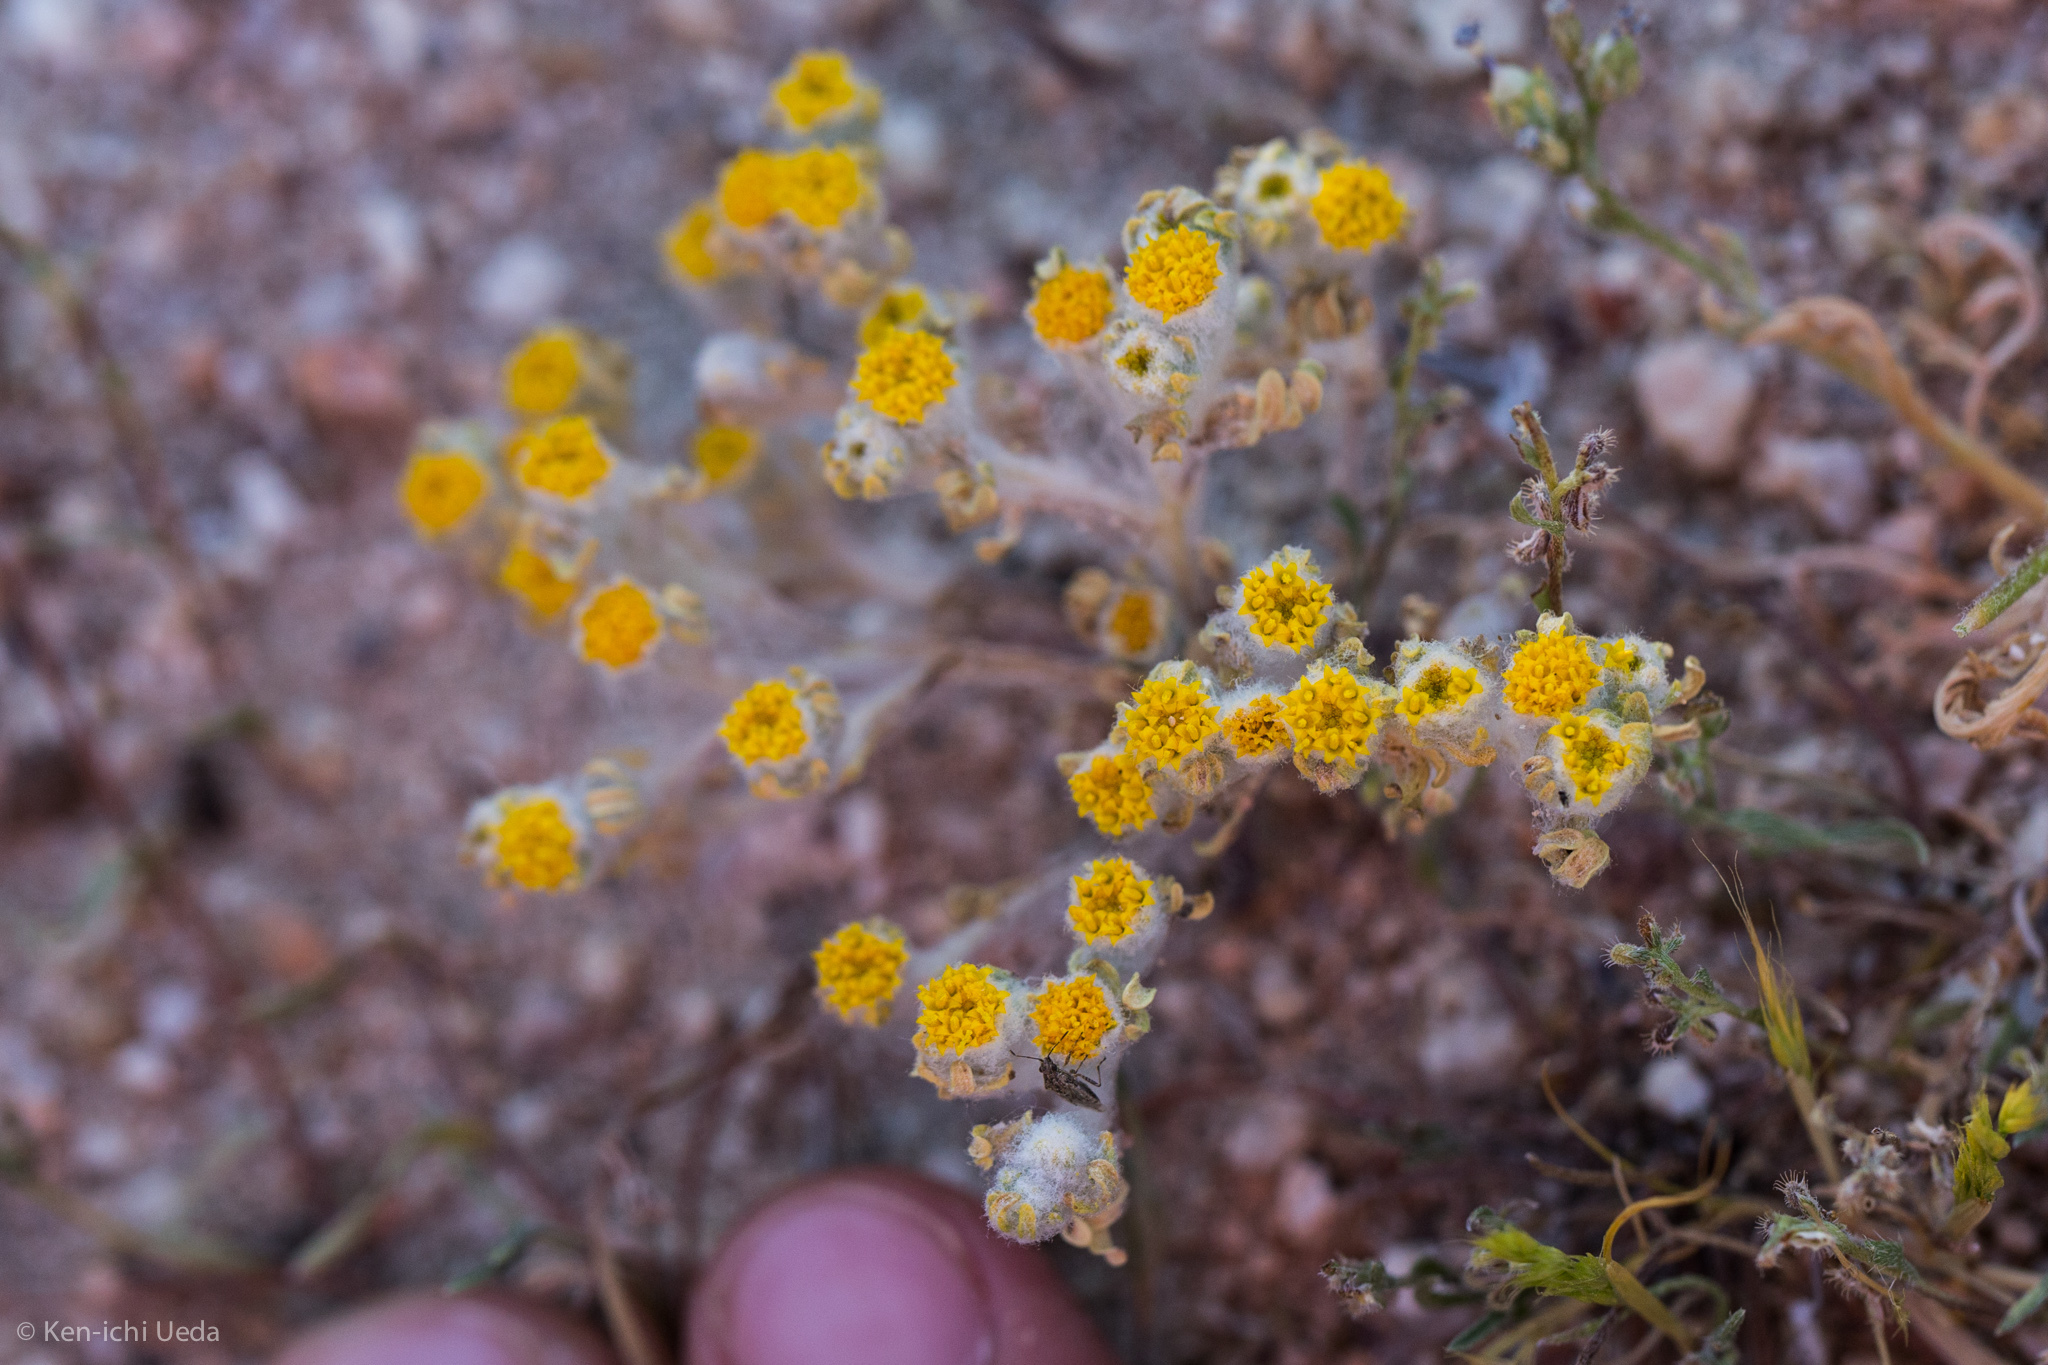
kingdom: Plantae
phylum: Tracheophyta
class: Magnoliopsida
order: Asterales
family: Asteraceae
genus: Eriophyllum
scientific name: Eriophyllum pringlei
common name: Pringle's woolly-sunflower
